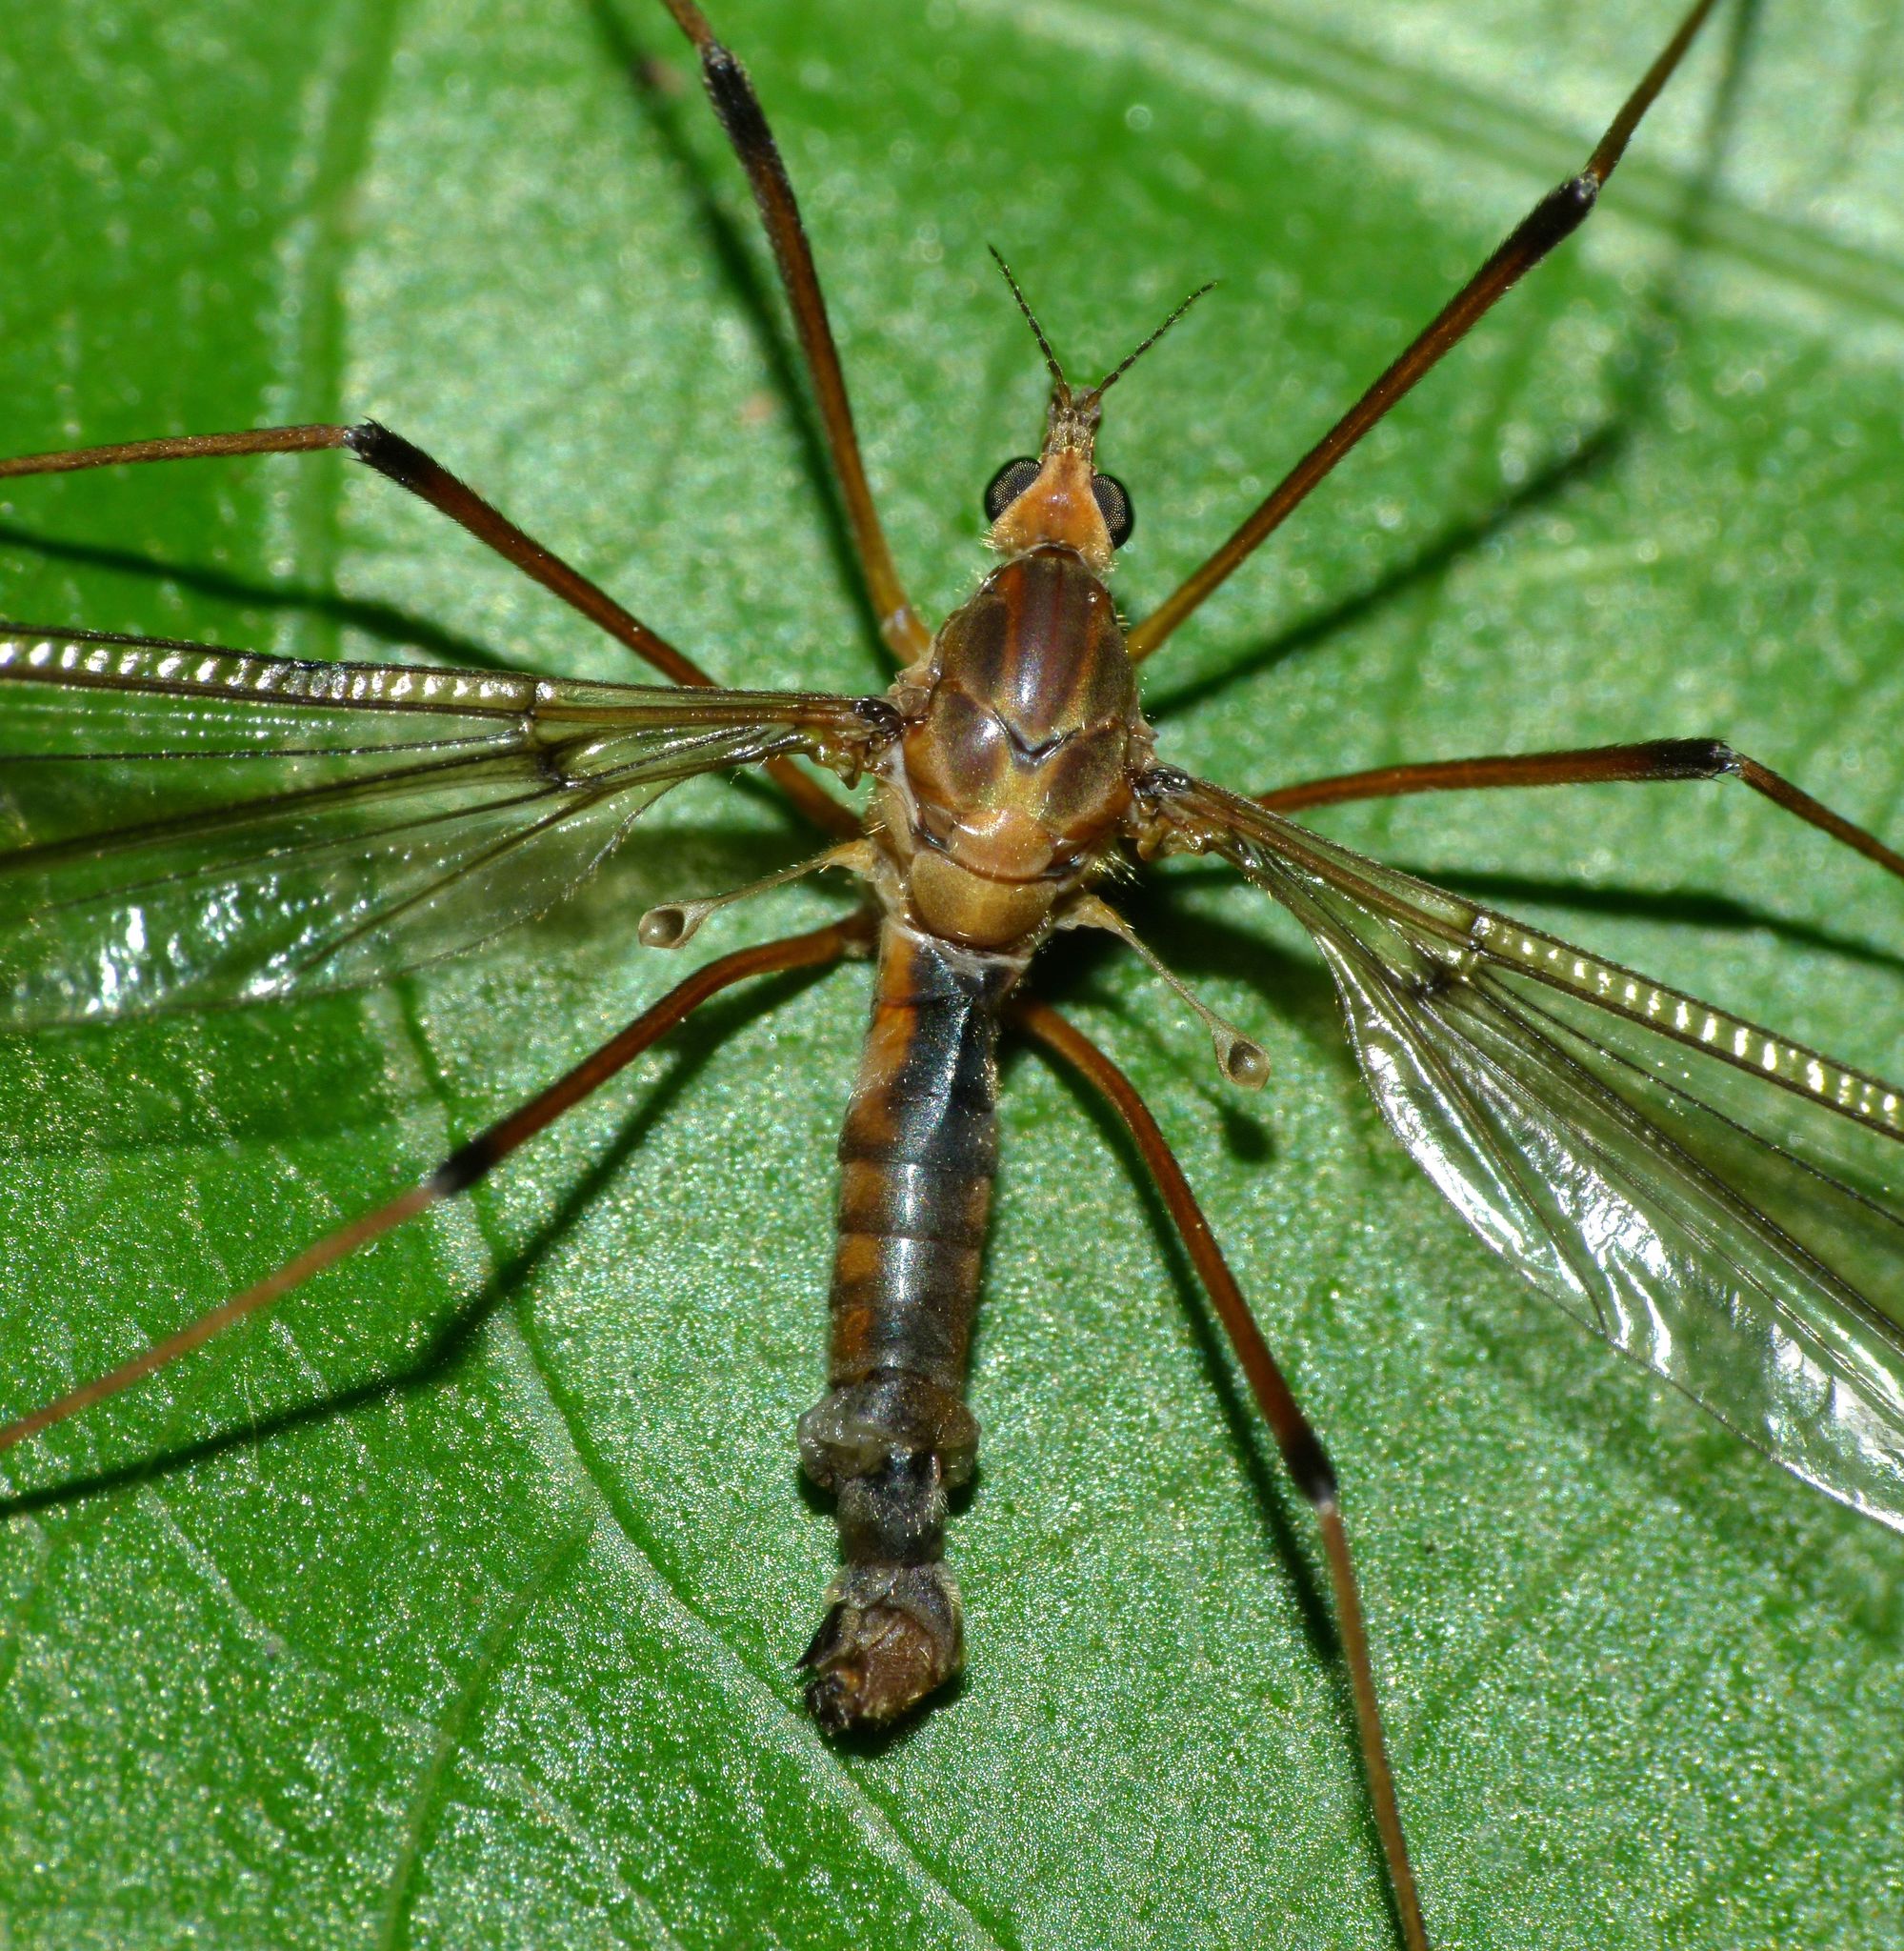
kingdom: Animalia
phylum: Arthropoda
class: Insecta
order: Diptera
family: Tipulidae
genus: Leptotarsus
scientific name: Leptotarsus zeylandiae
